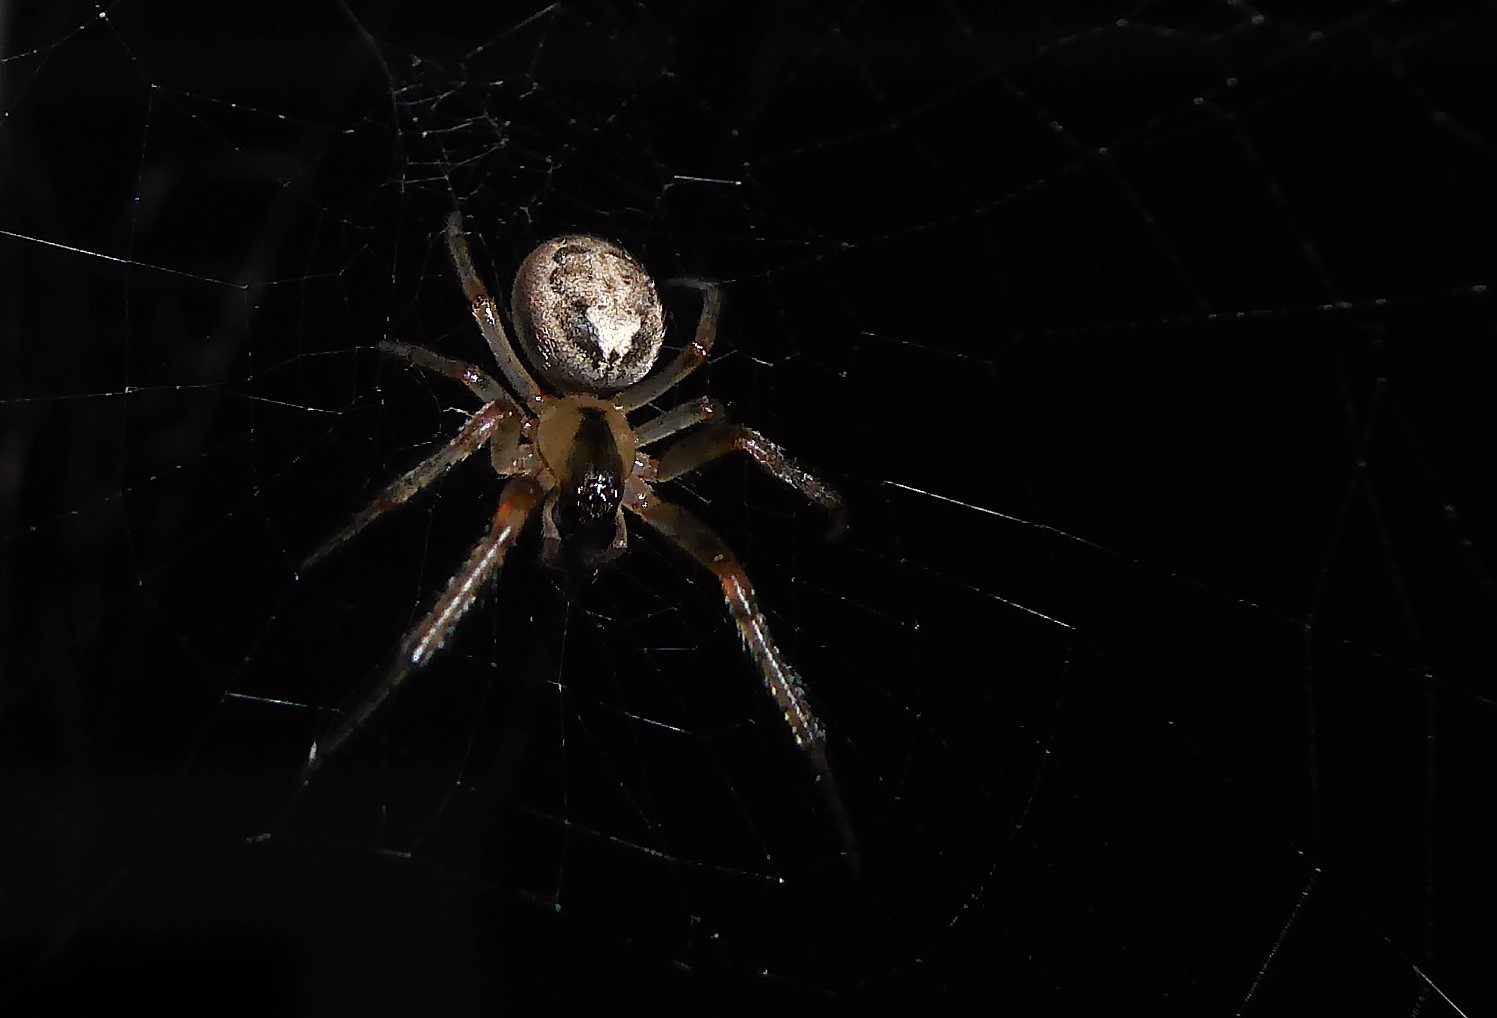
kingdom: Animalia
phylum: Arthropoda
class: Arachnida
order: Araneae
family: Araneidae
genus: Zygiella
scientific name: Zygiella x-notata
